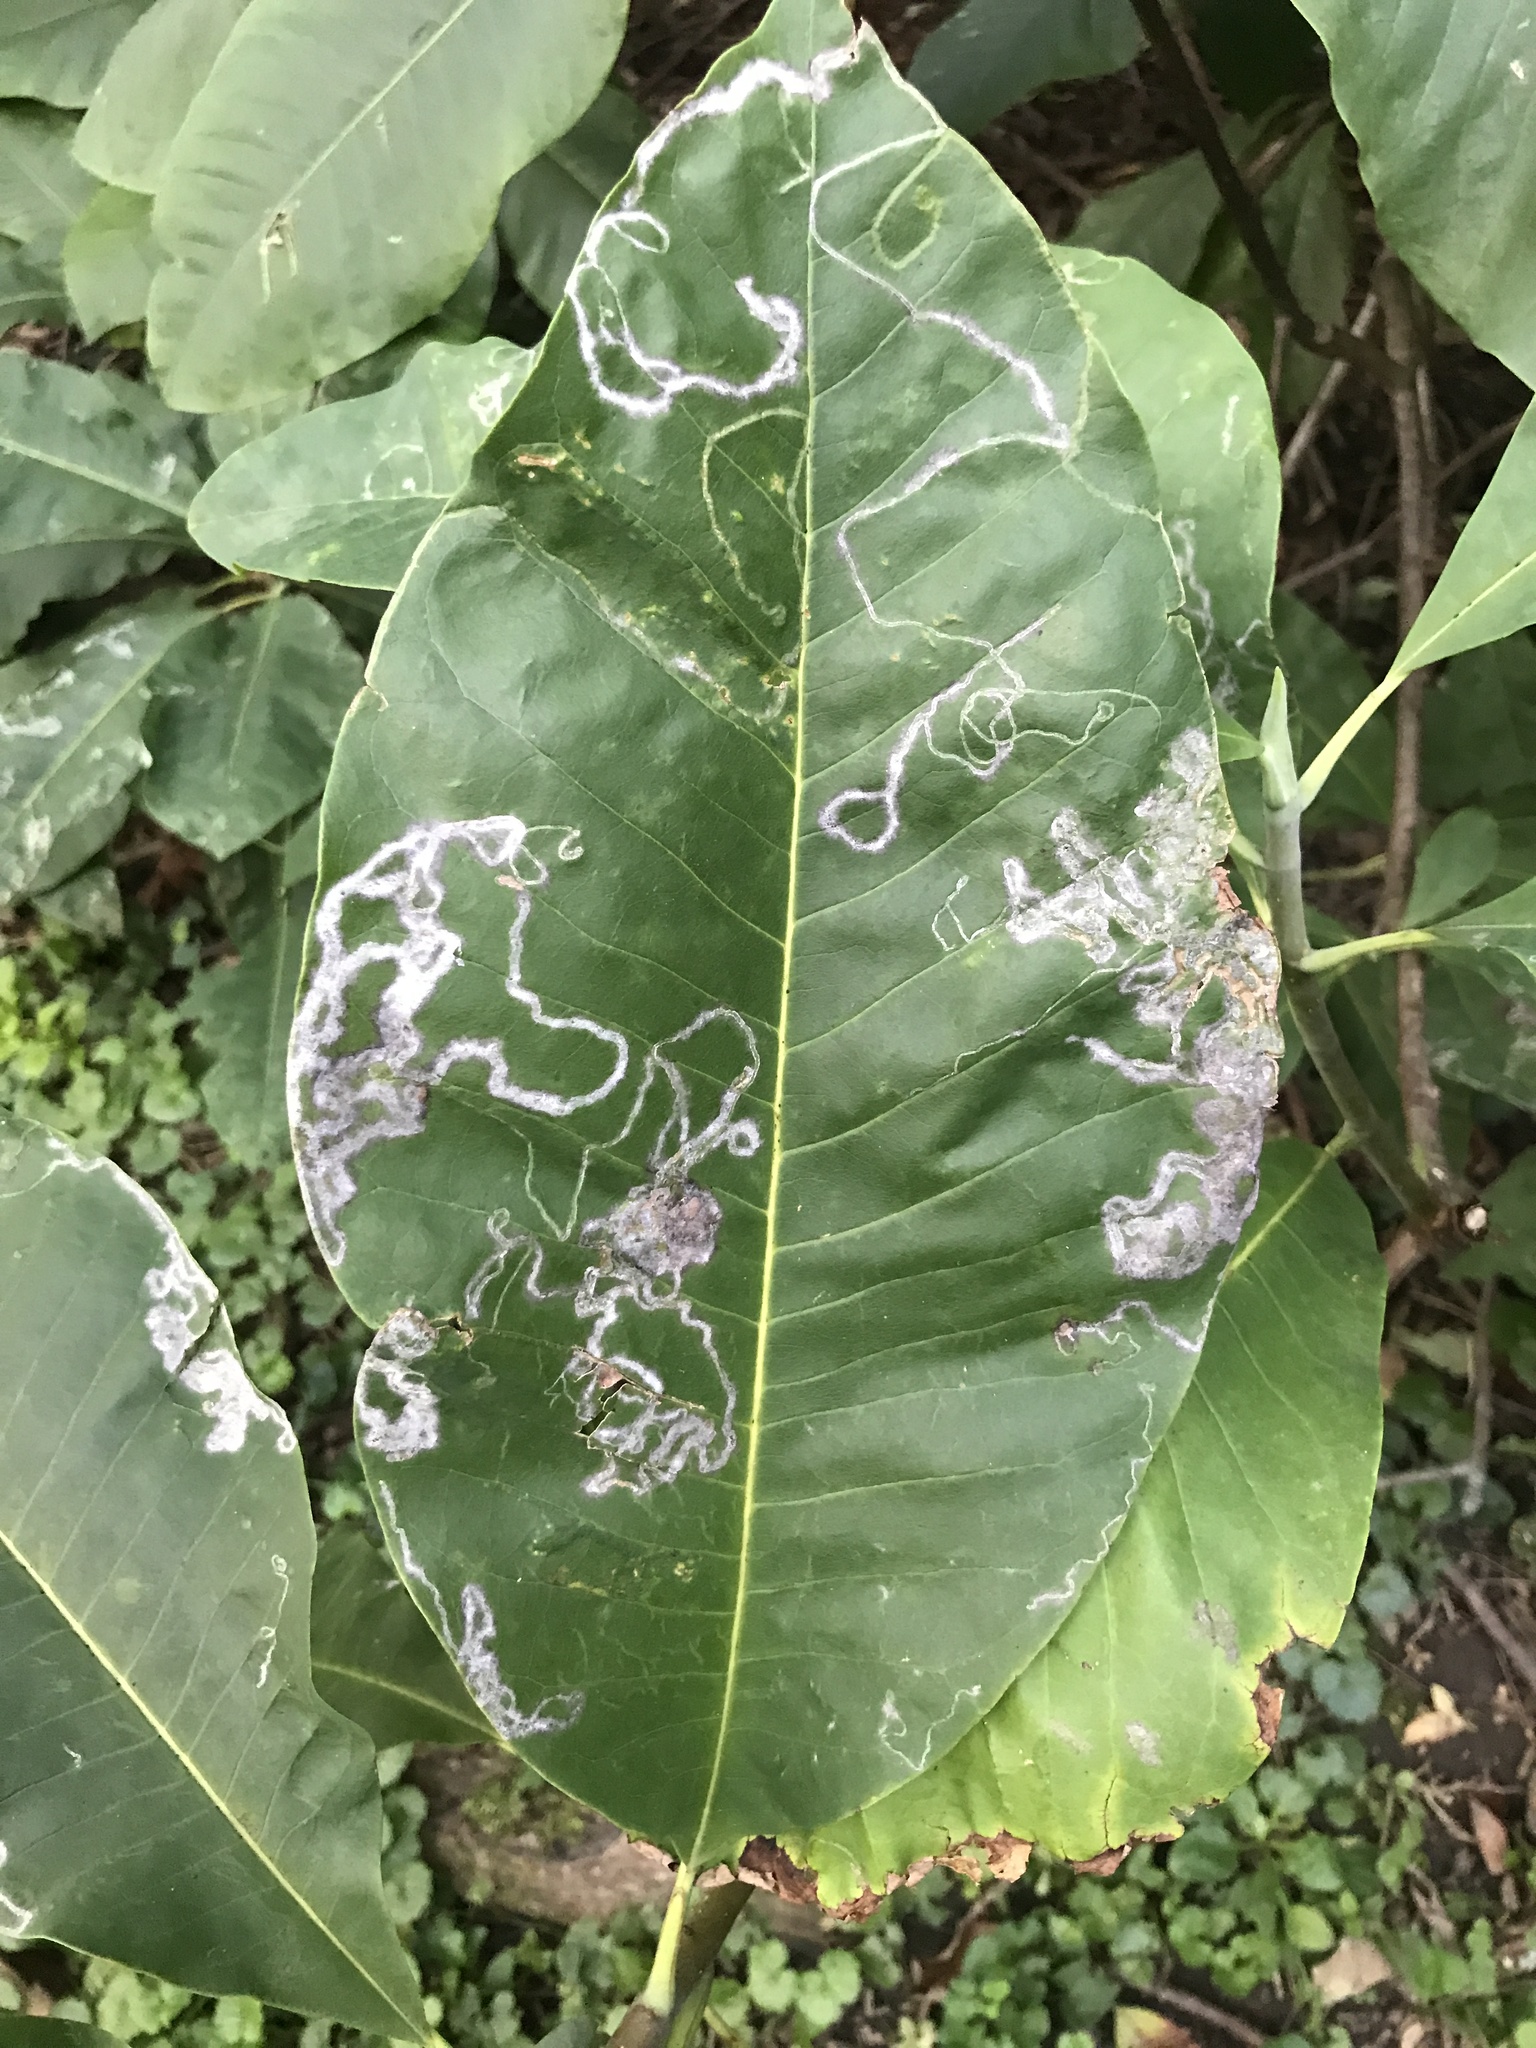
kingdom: Animalia
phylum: Arthropoda
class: Insecta
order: Lepidoptera
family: Gracillariidae
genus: Phyllocnistis
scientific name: Phyllocnistis liriodendronella
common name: Tulip tree leaf miner
